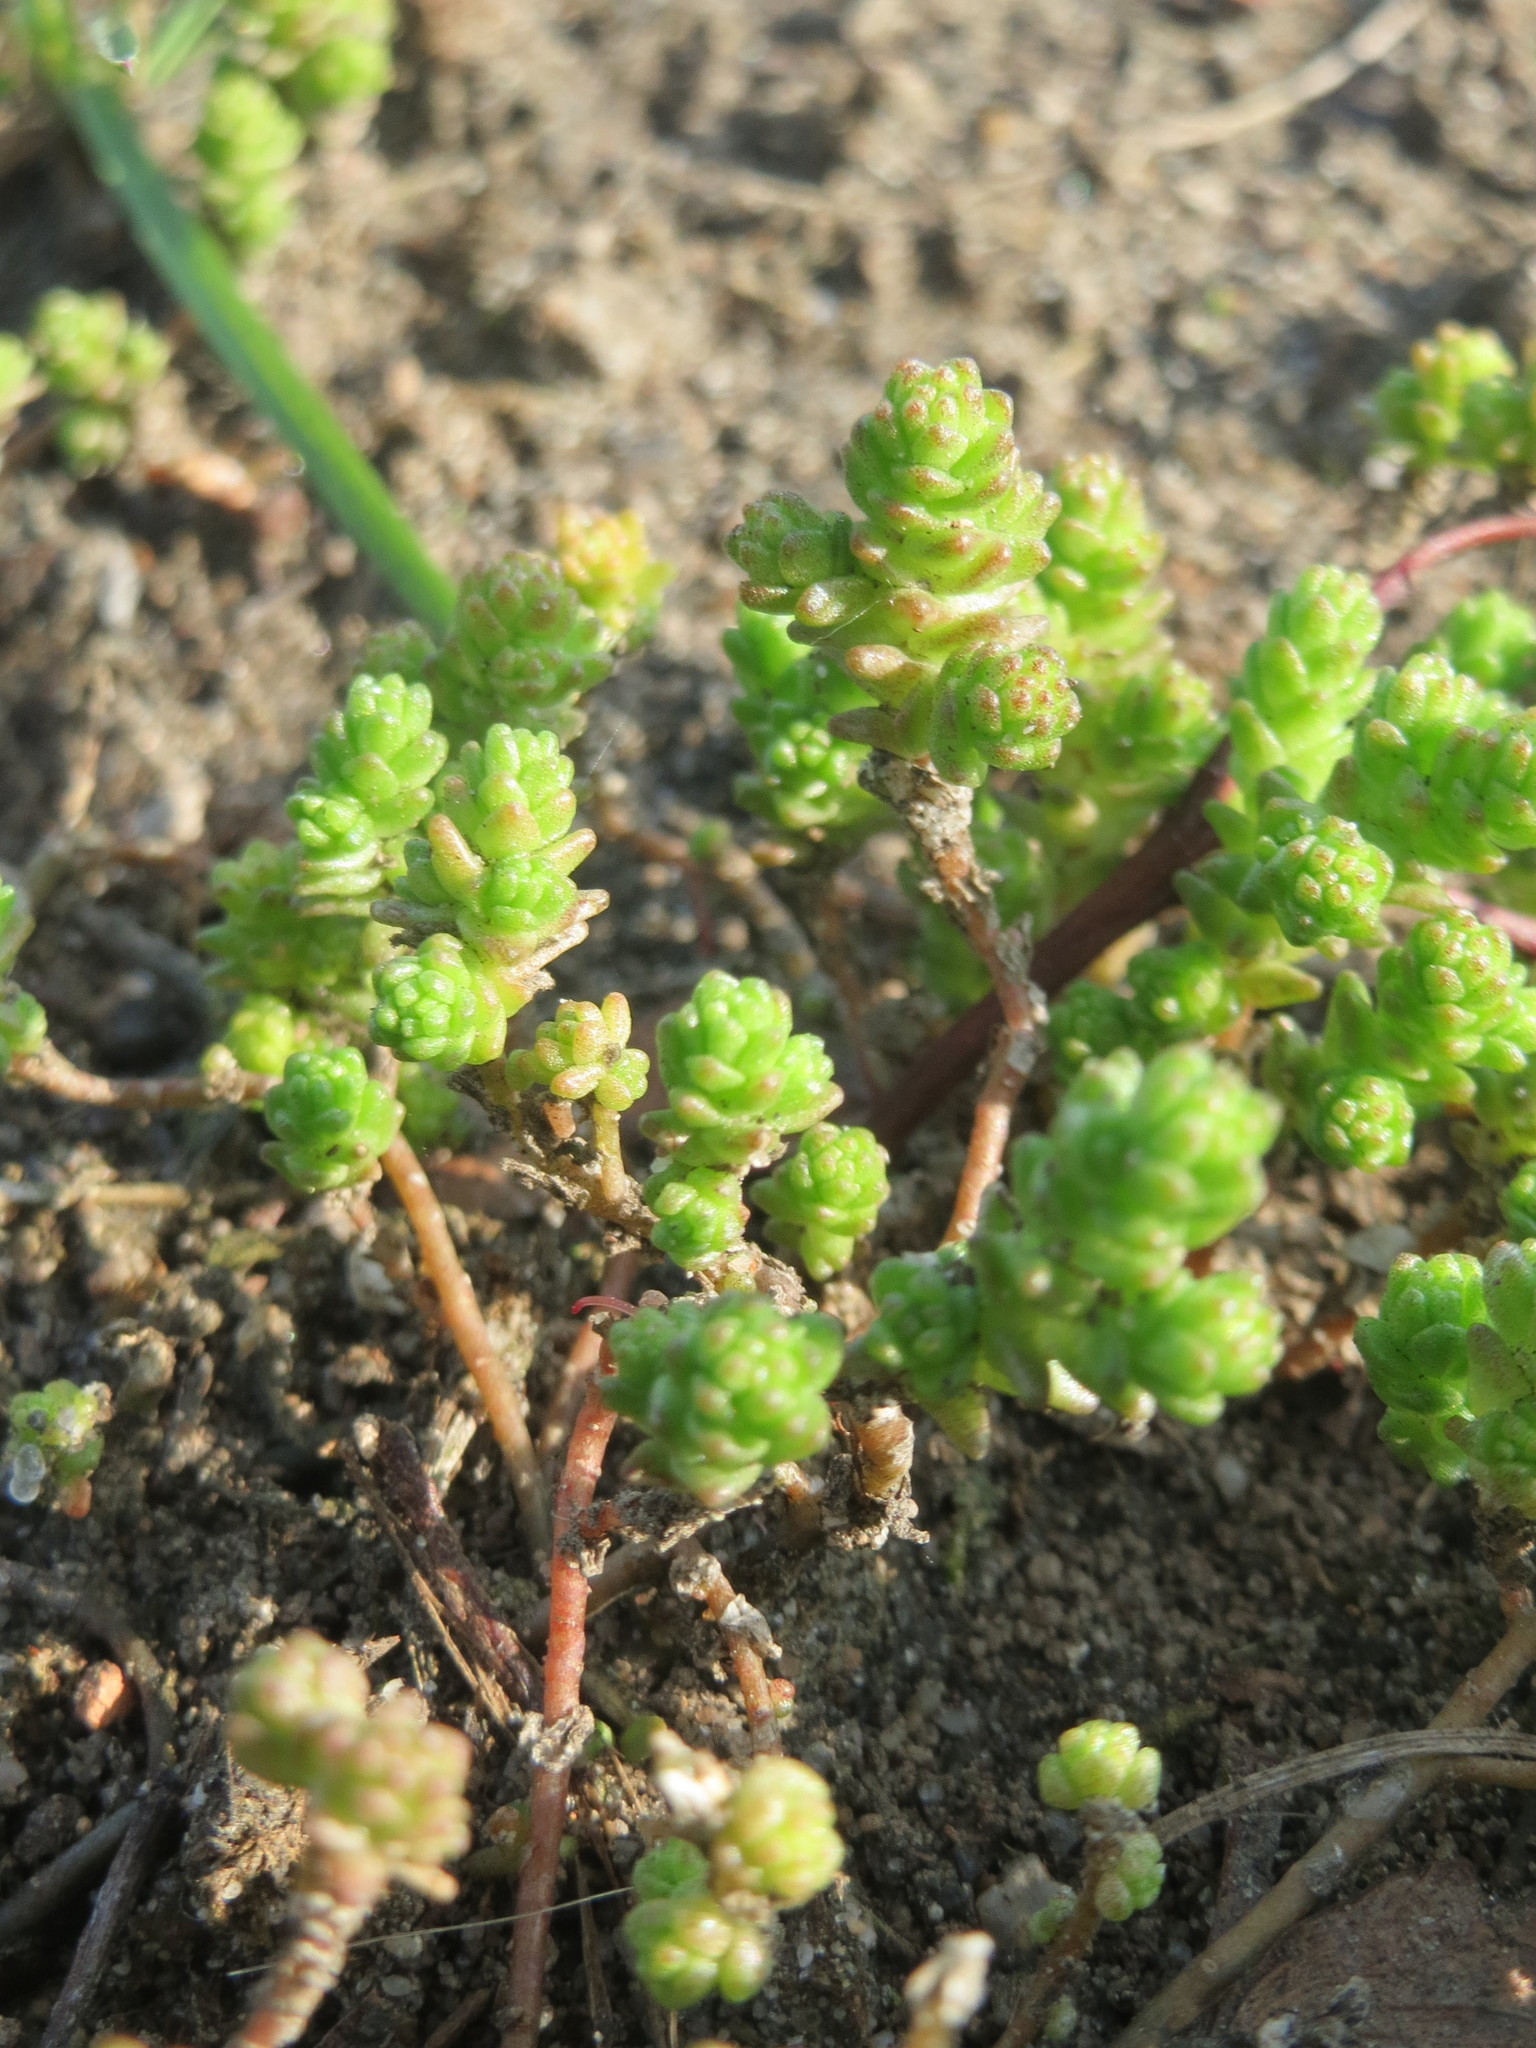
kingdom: Plantae
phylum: Tracheophyta
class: Magnoliopsida
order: Saxifragales
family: Crassulaceae
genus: Sedum
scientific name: Sedum acre
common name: Biting stonecrop
